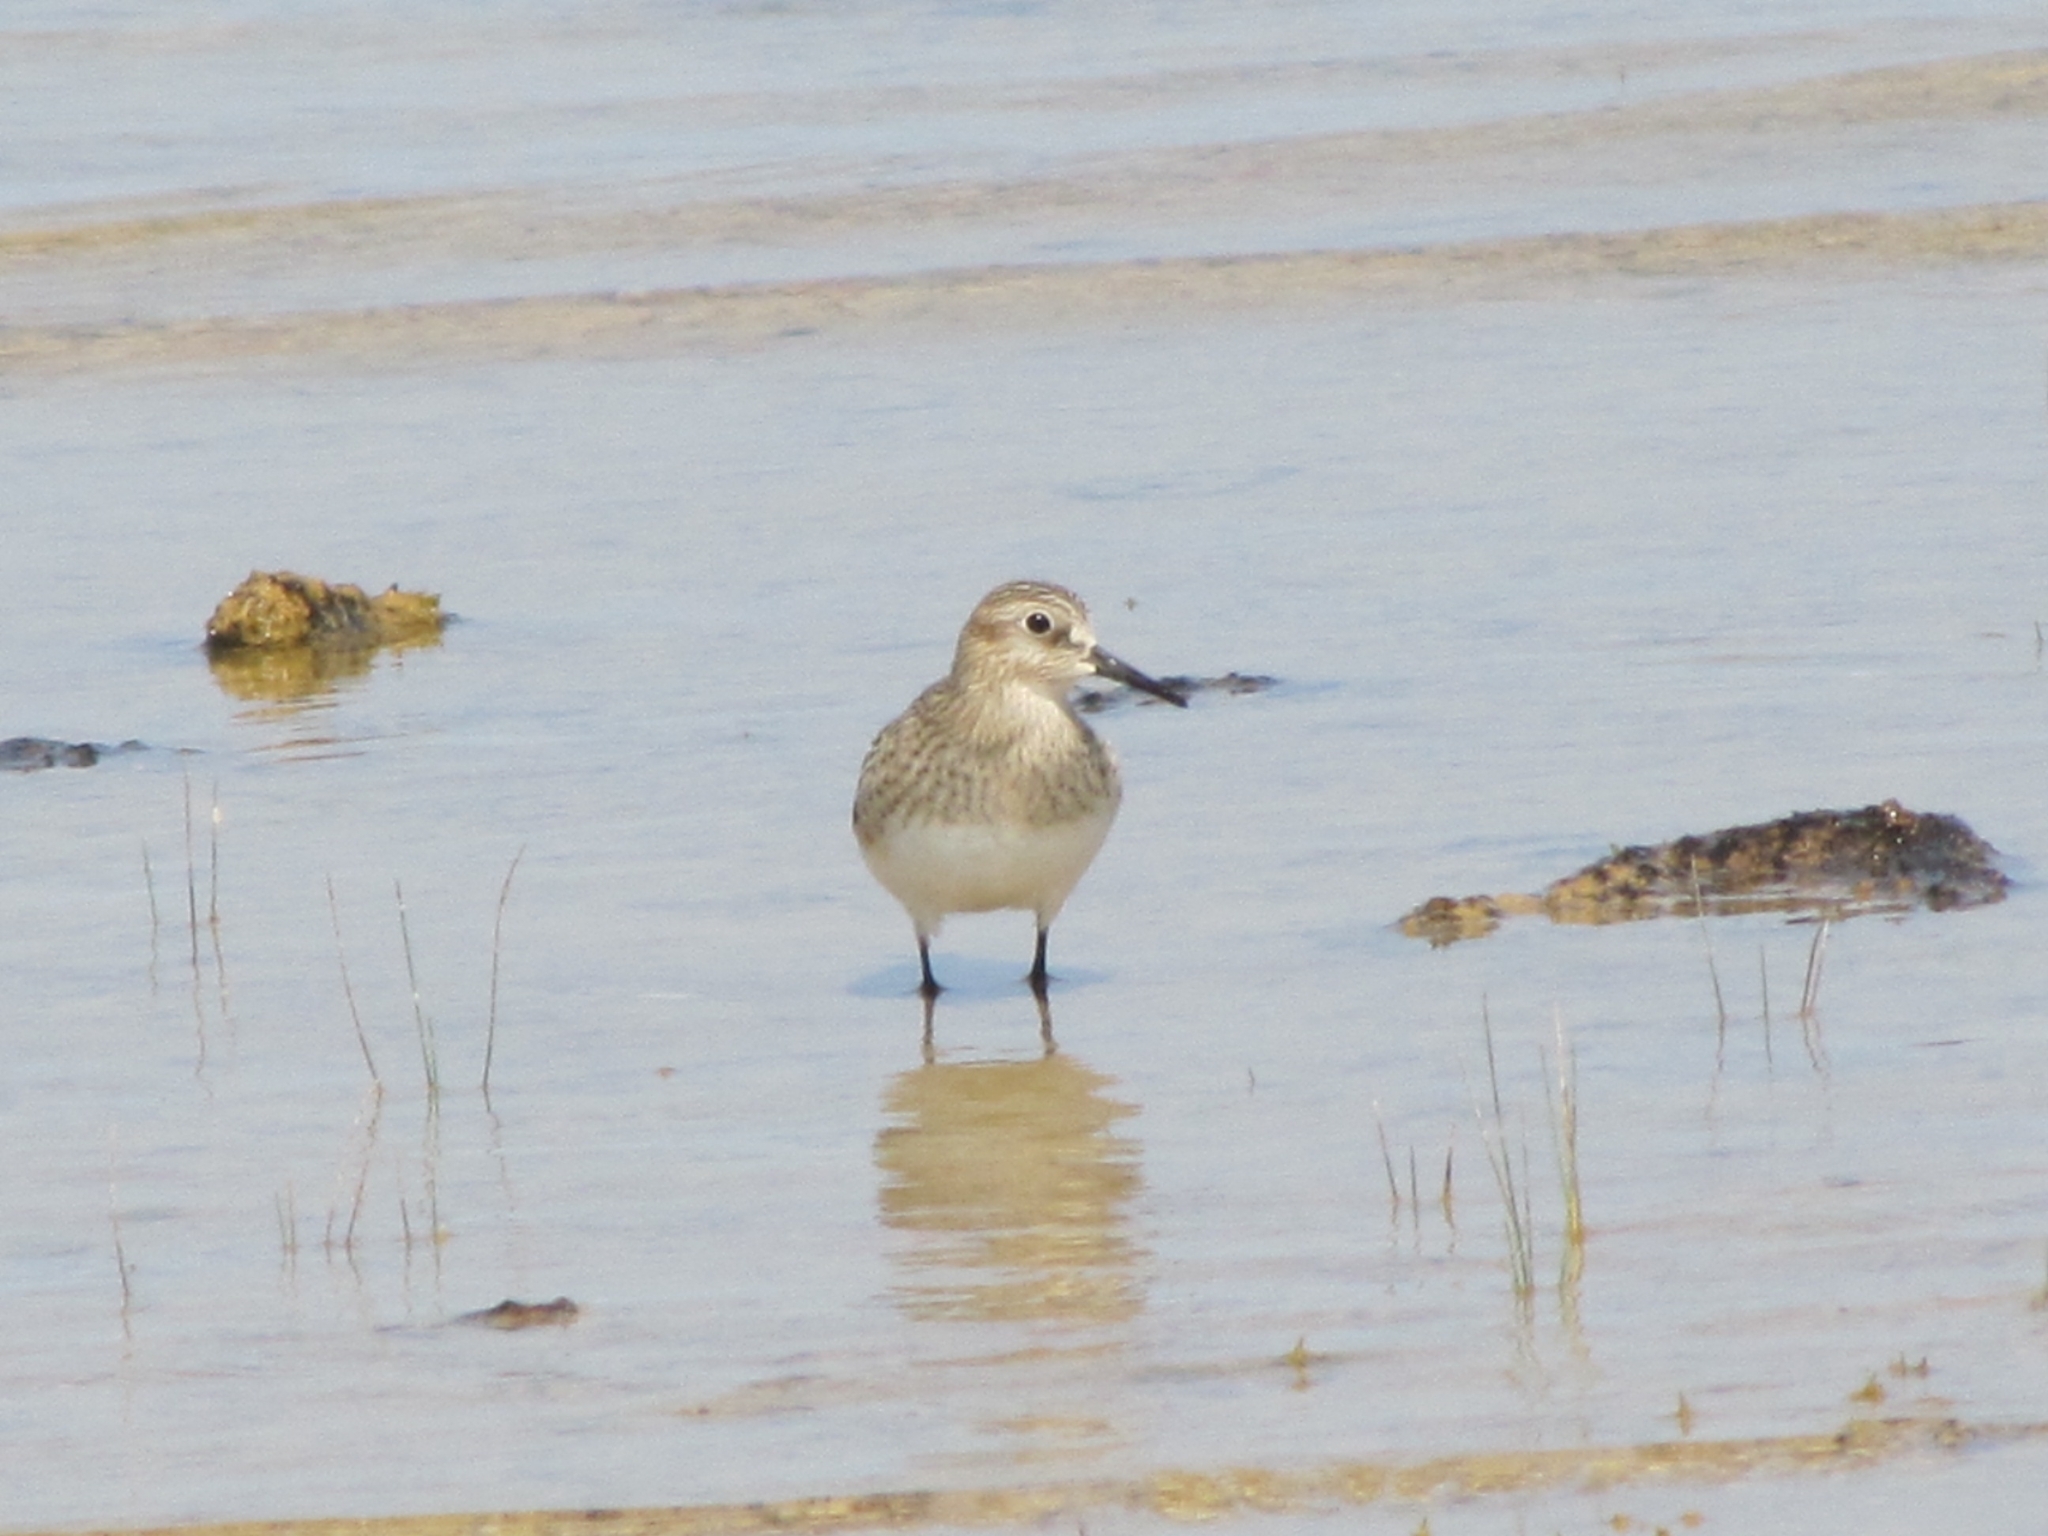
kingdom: Animalia
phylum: Chordata
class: Aves
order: Charadriiformes
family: Scolopacidae
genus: Calidris
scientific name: Calidris bairdii
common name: Baird's sandpiper
